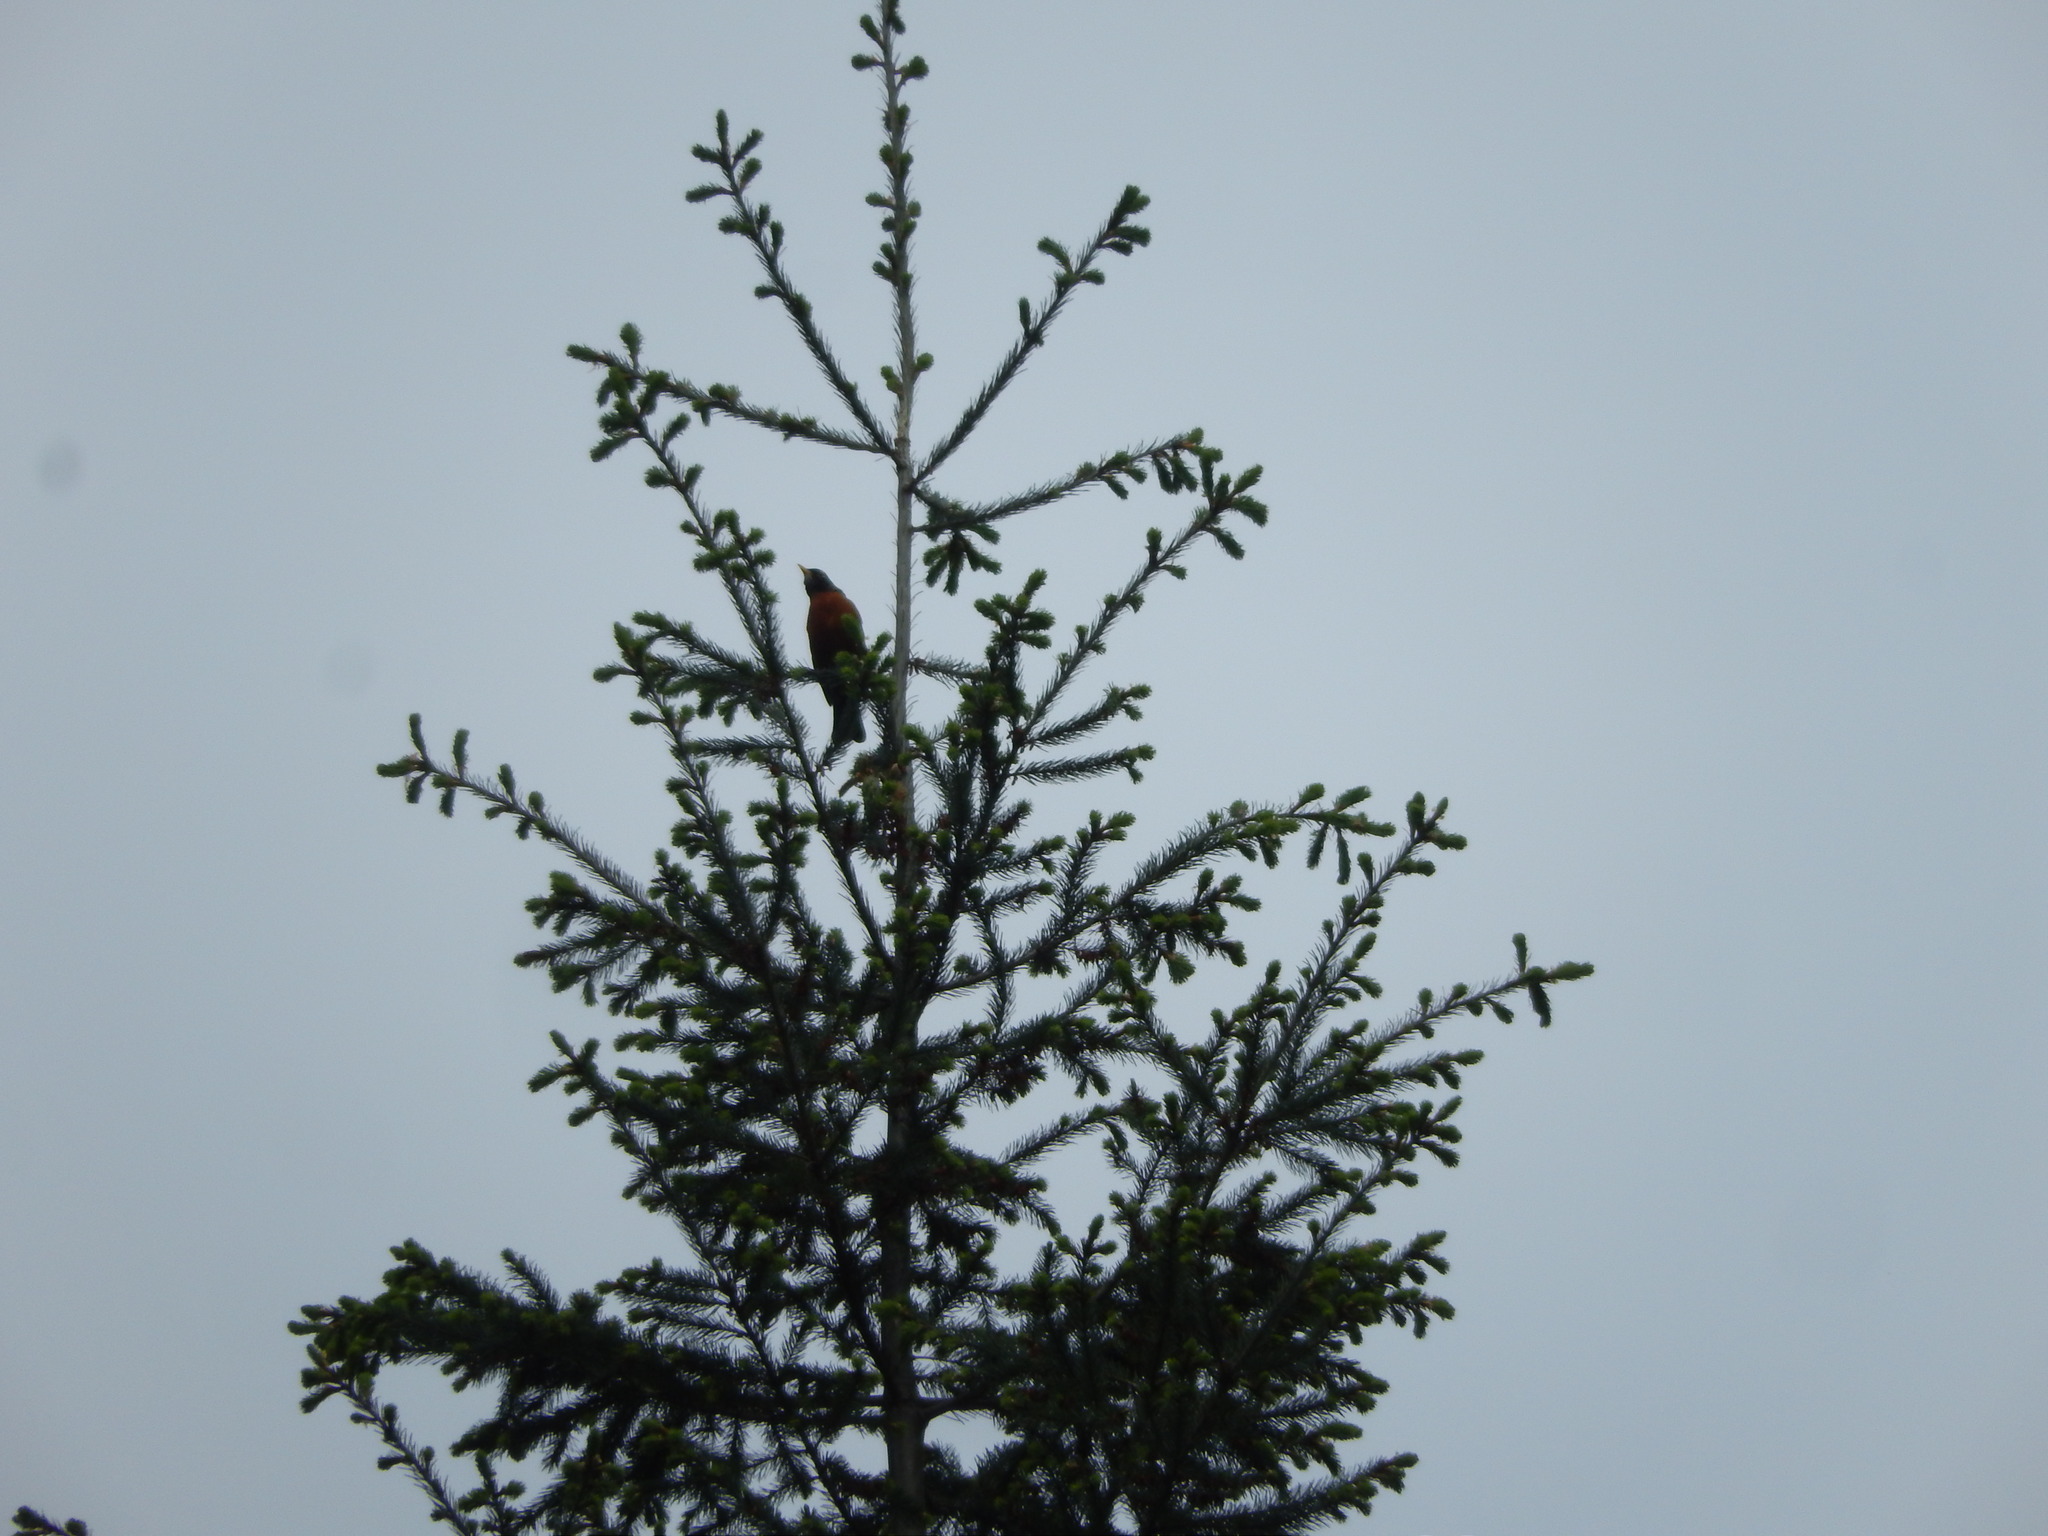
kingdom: Animalia
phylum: Chordata
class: Aves
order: Passeriformes
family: Turdidae
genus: Turdus
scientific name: Turdus migratorius
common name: American robin
